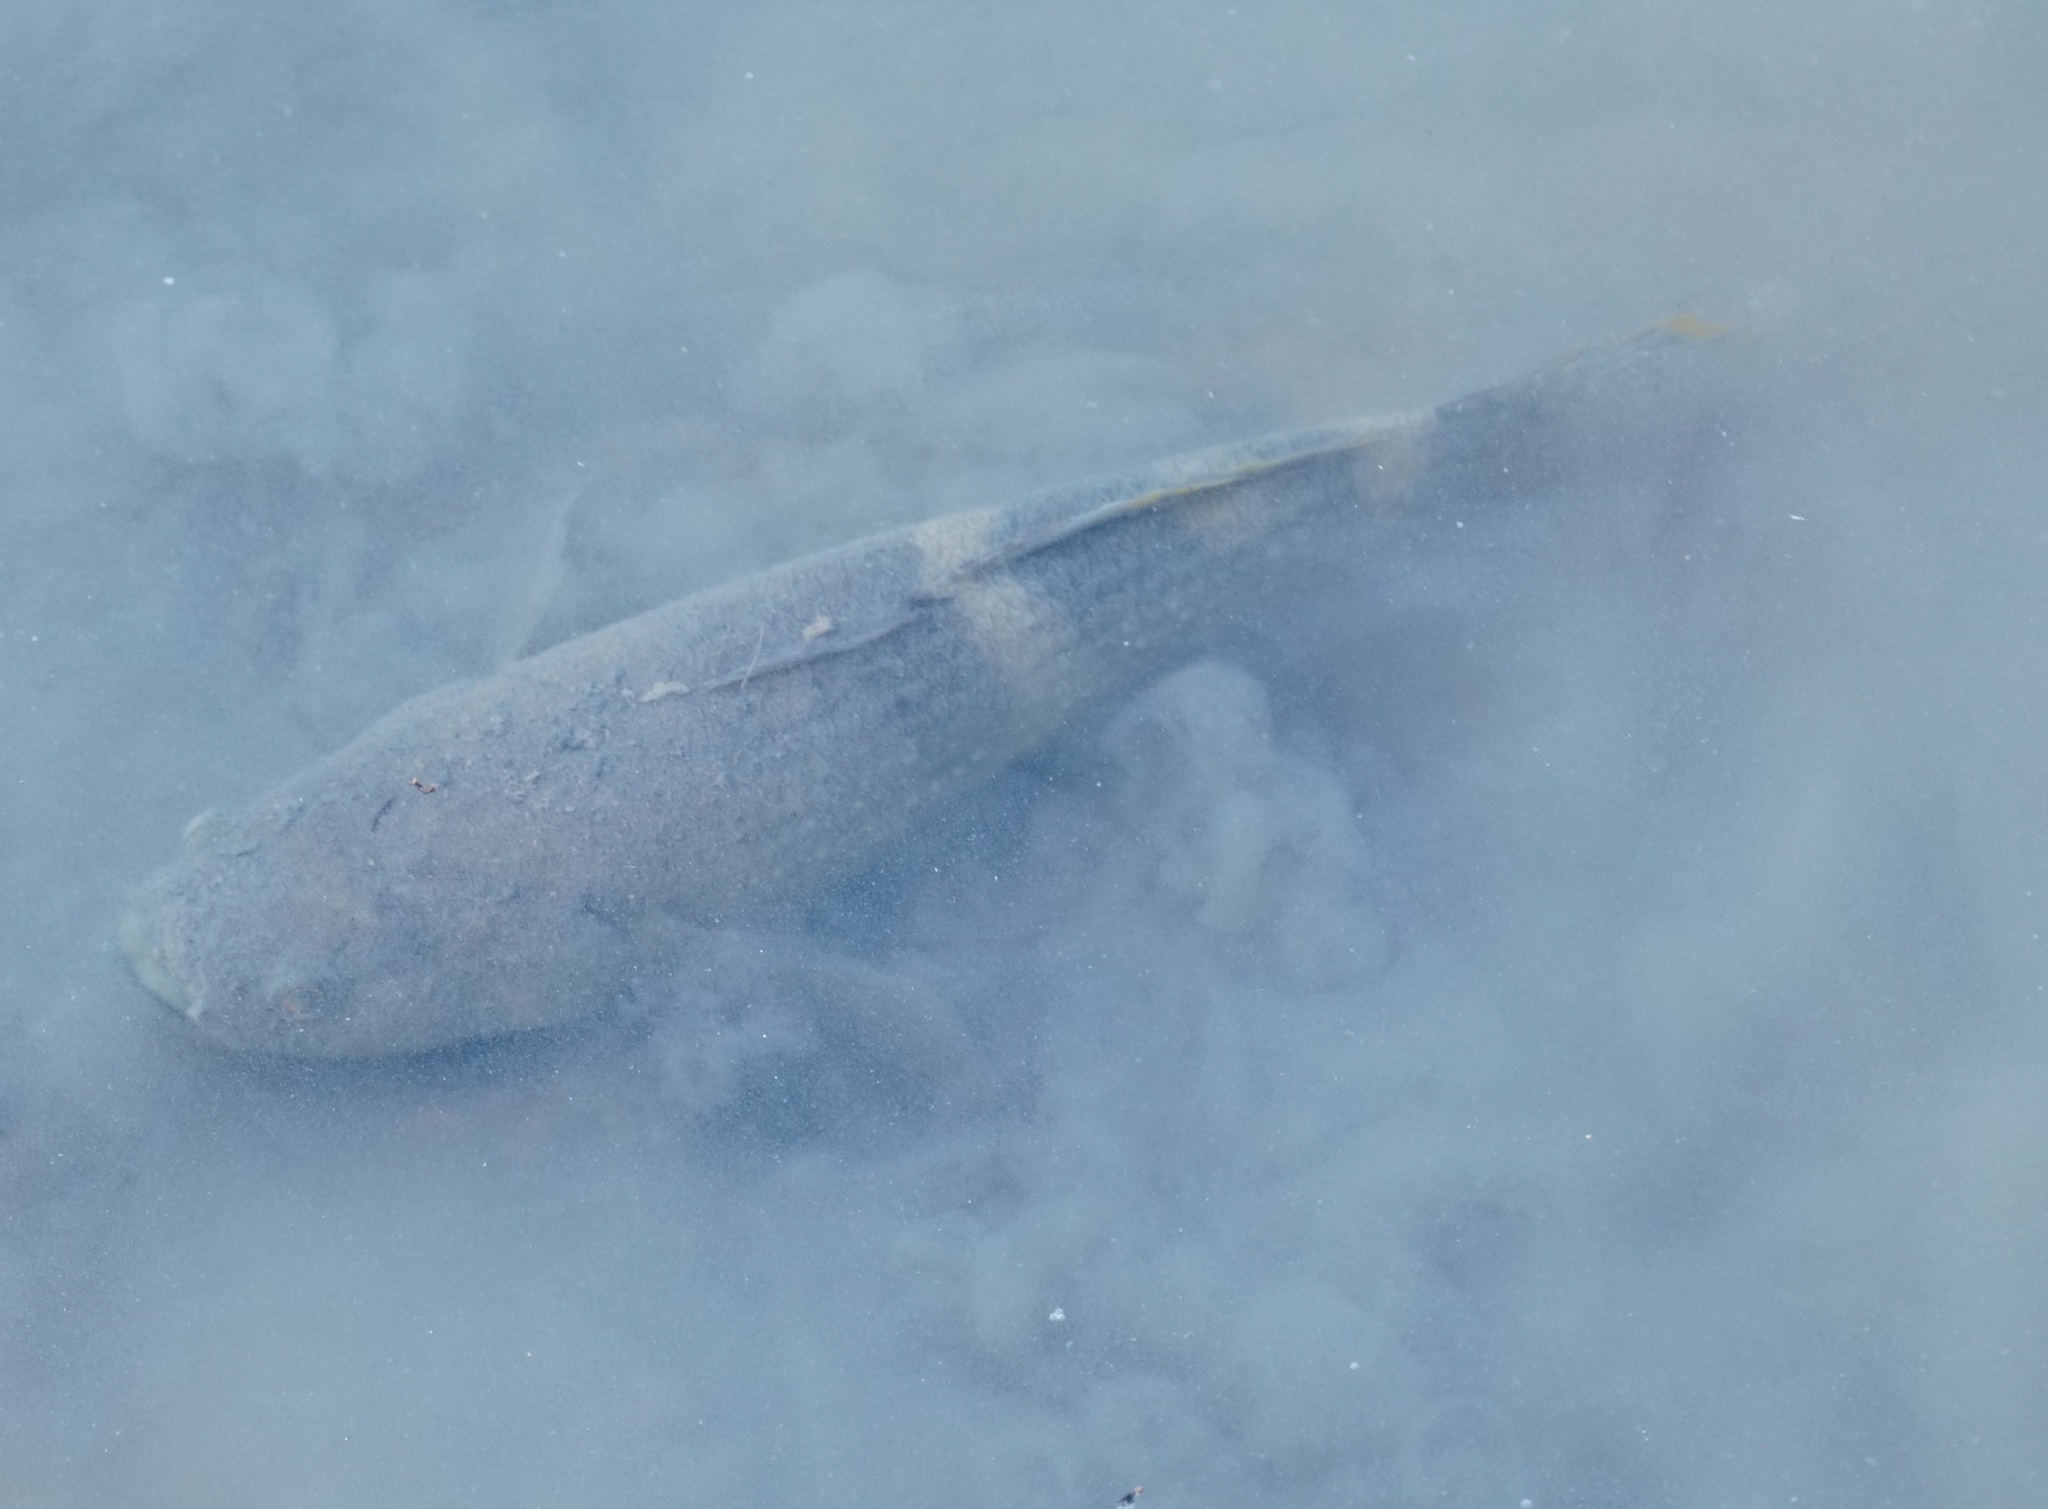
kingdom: Animalia
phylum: Chordata
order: Perciformes
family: Eleotridae
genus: Ophiocara
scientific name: Ophiocara porocephala
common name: Spangled gudgeon
